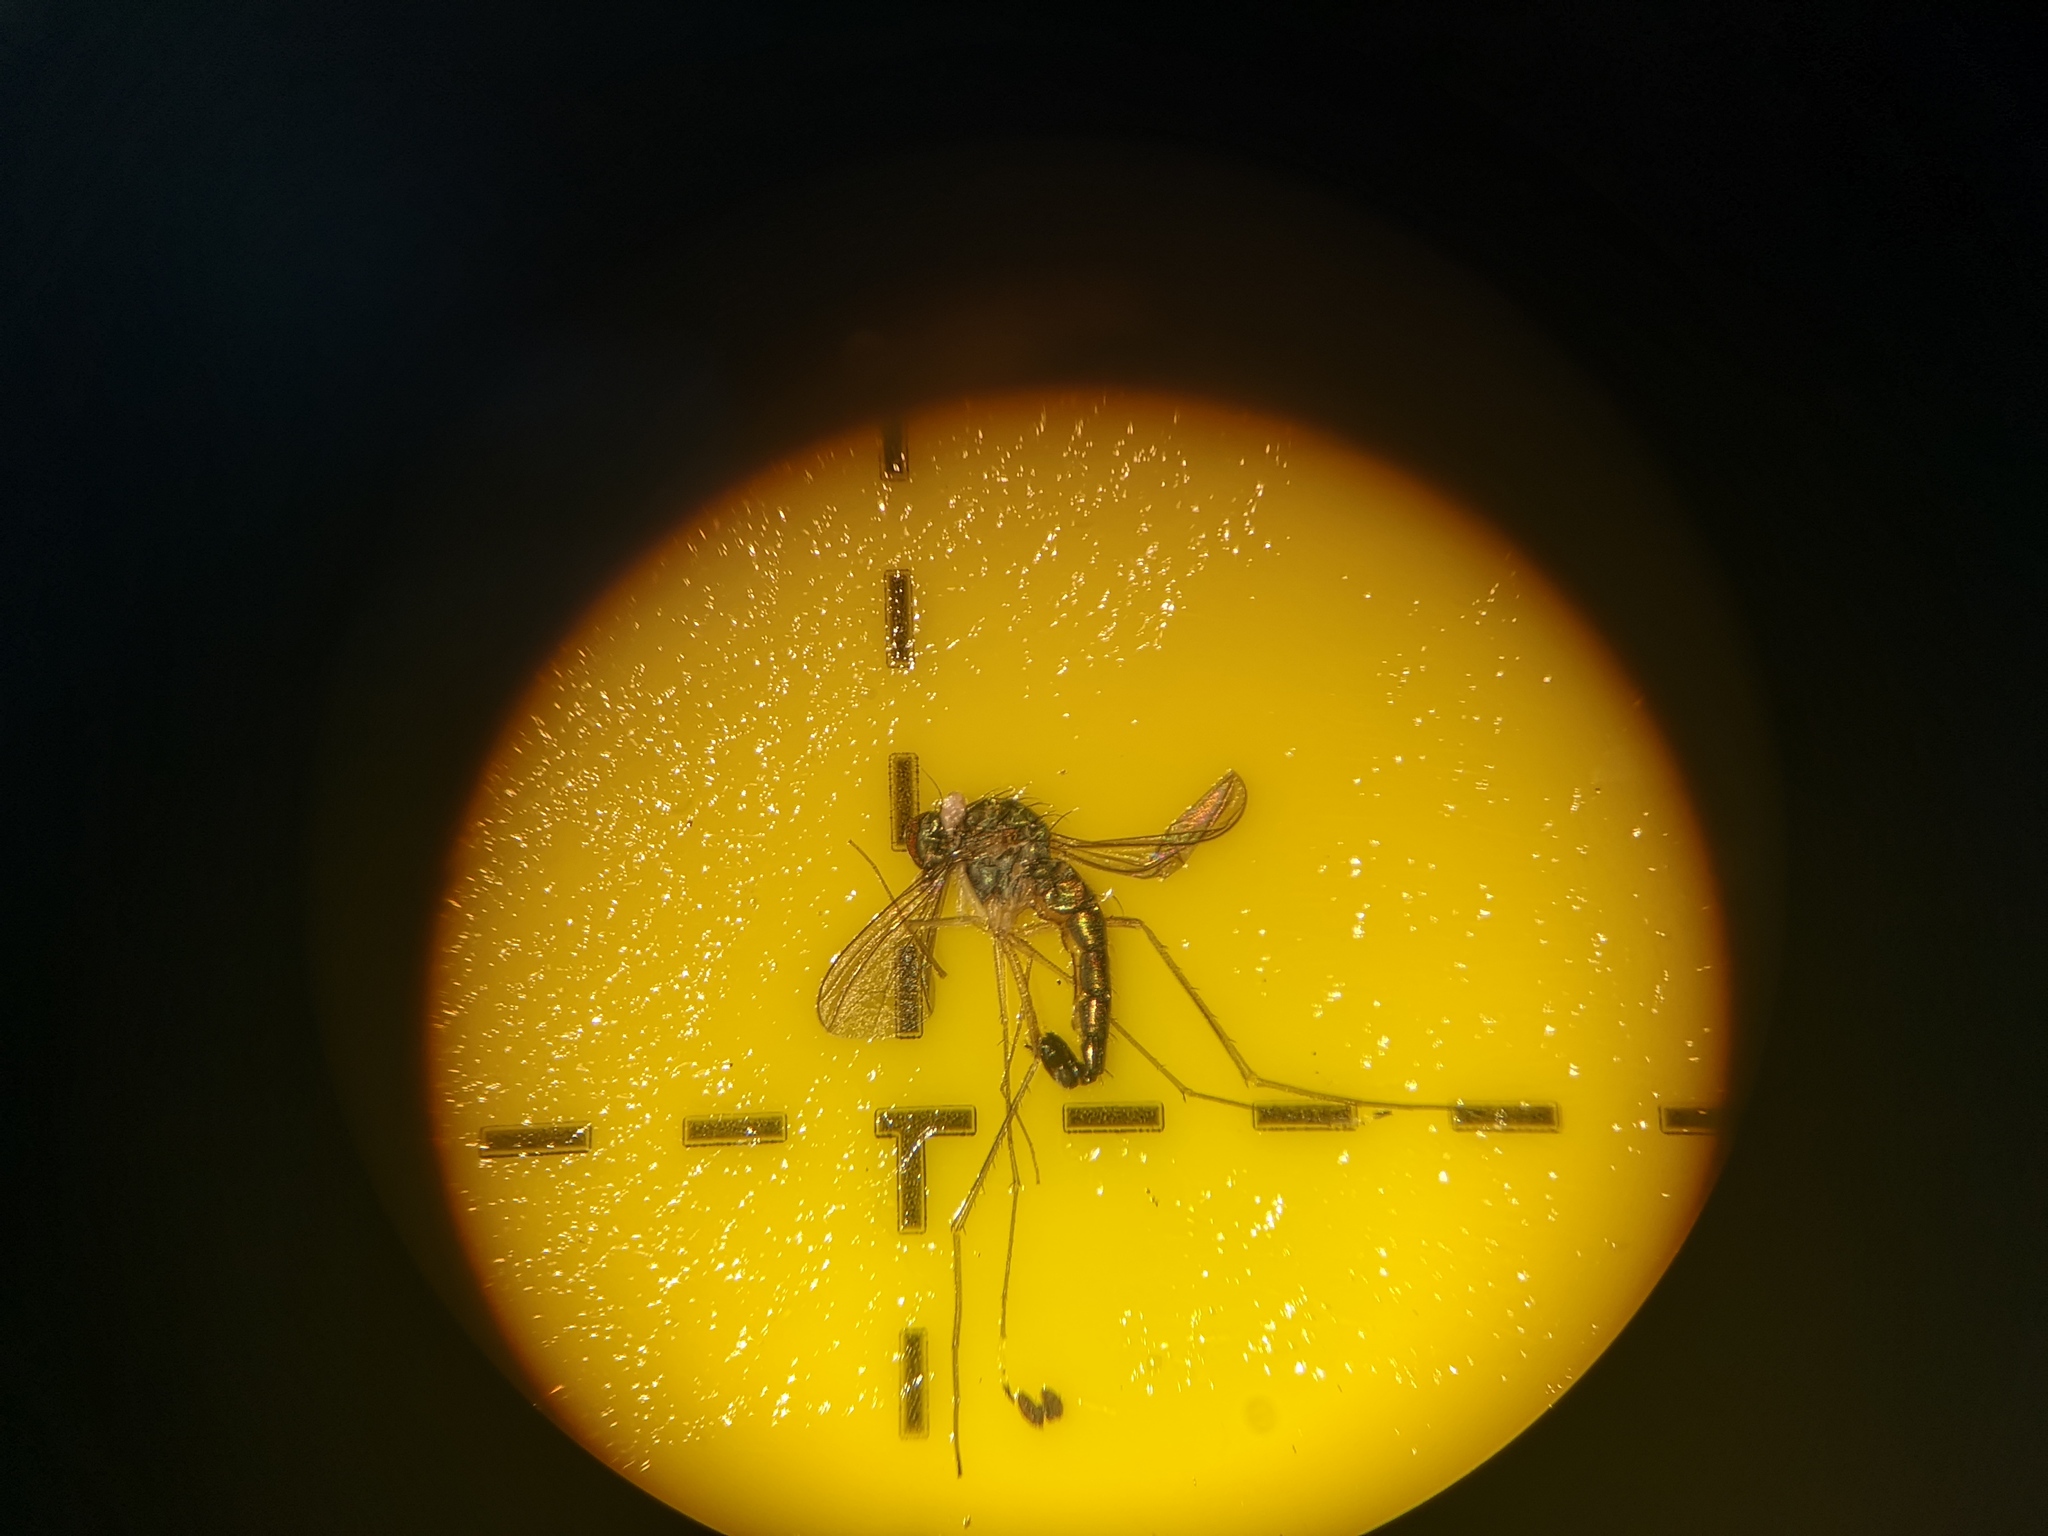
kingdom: Animalia
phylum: Arthropoda
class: Insecta
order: Diptera
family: Dolichopodidae
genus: Sciapus
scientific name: Sciapus platypterus
